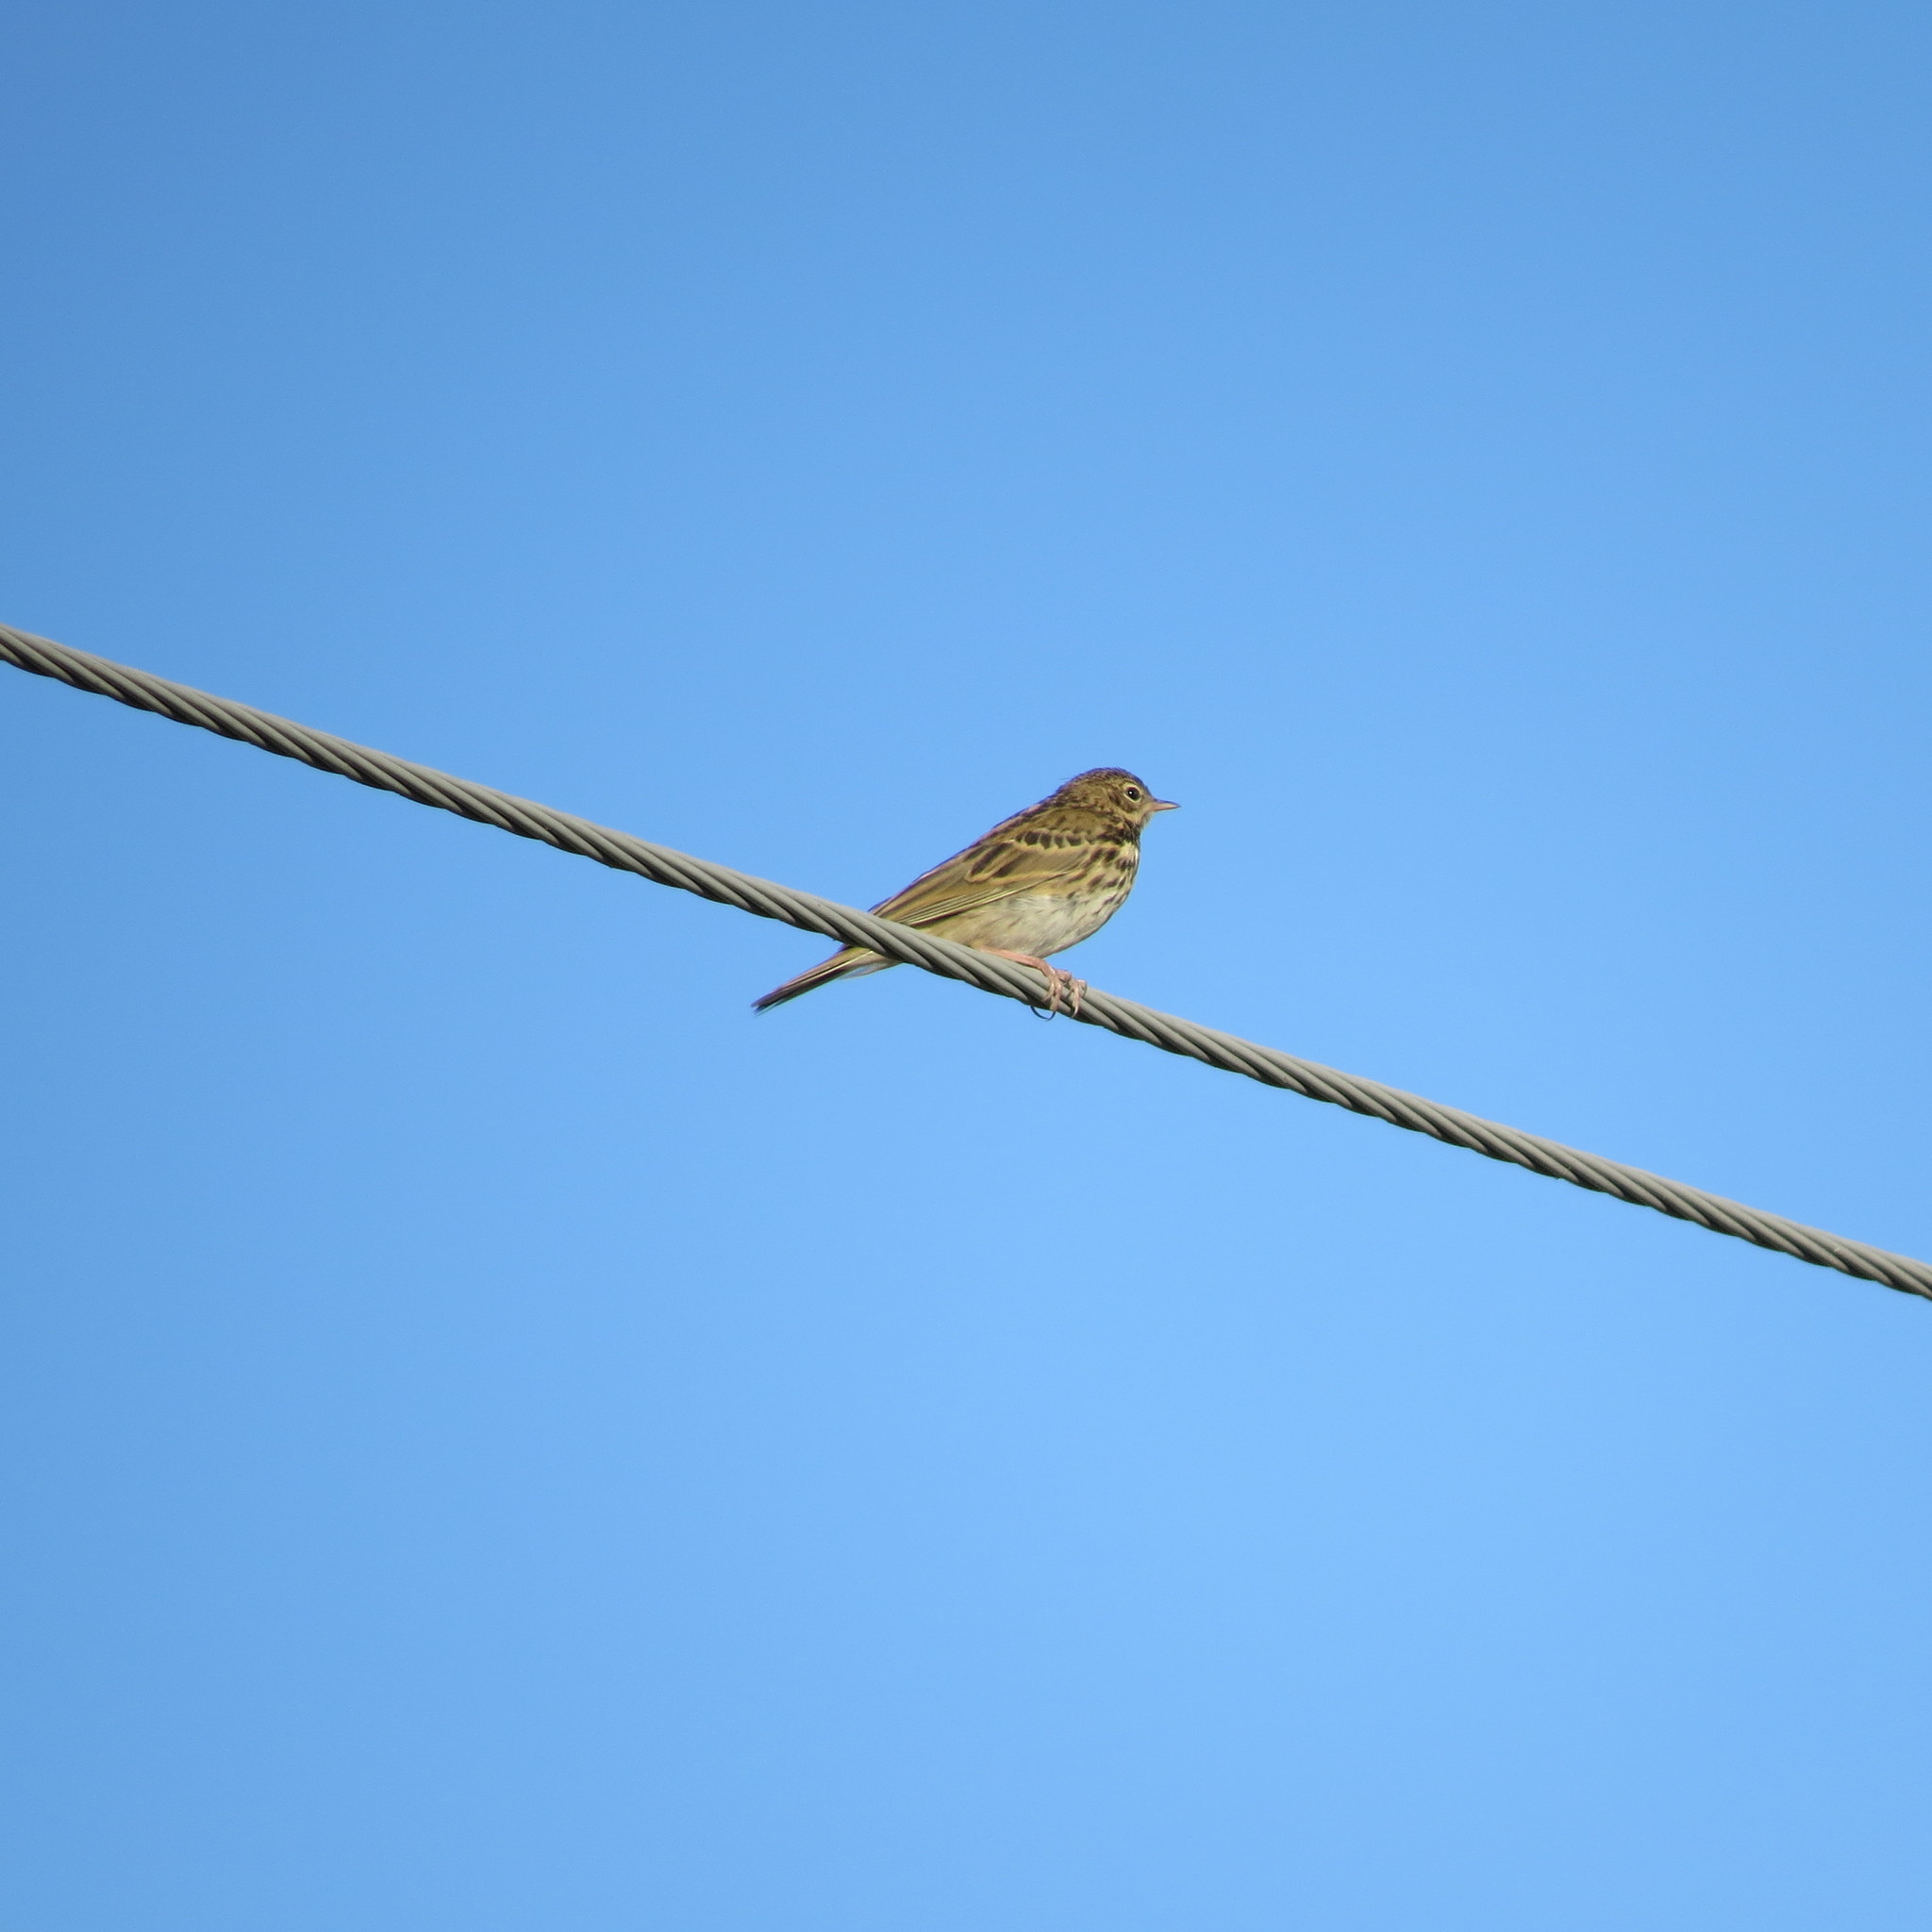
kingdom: Animalia
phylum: Chordata
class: Aves
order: Passeriformes
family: Motacillidae
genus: Anthus
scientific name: Anthus trivialis
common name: Tree pipit
